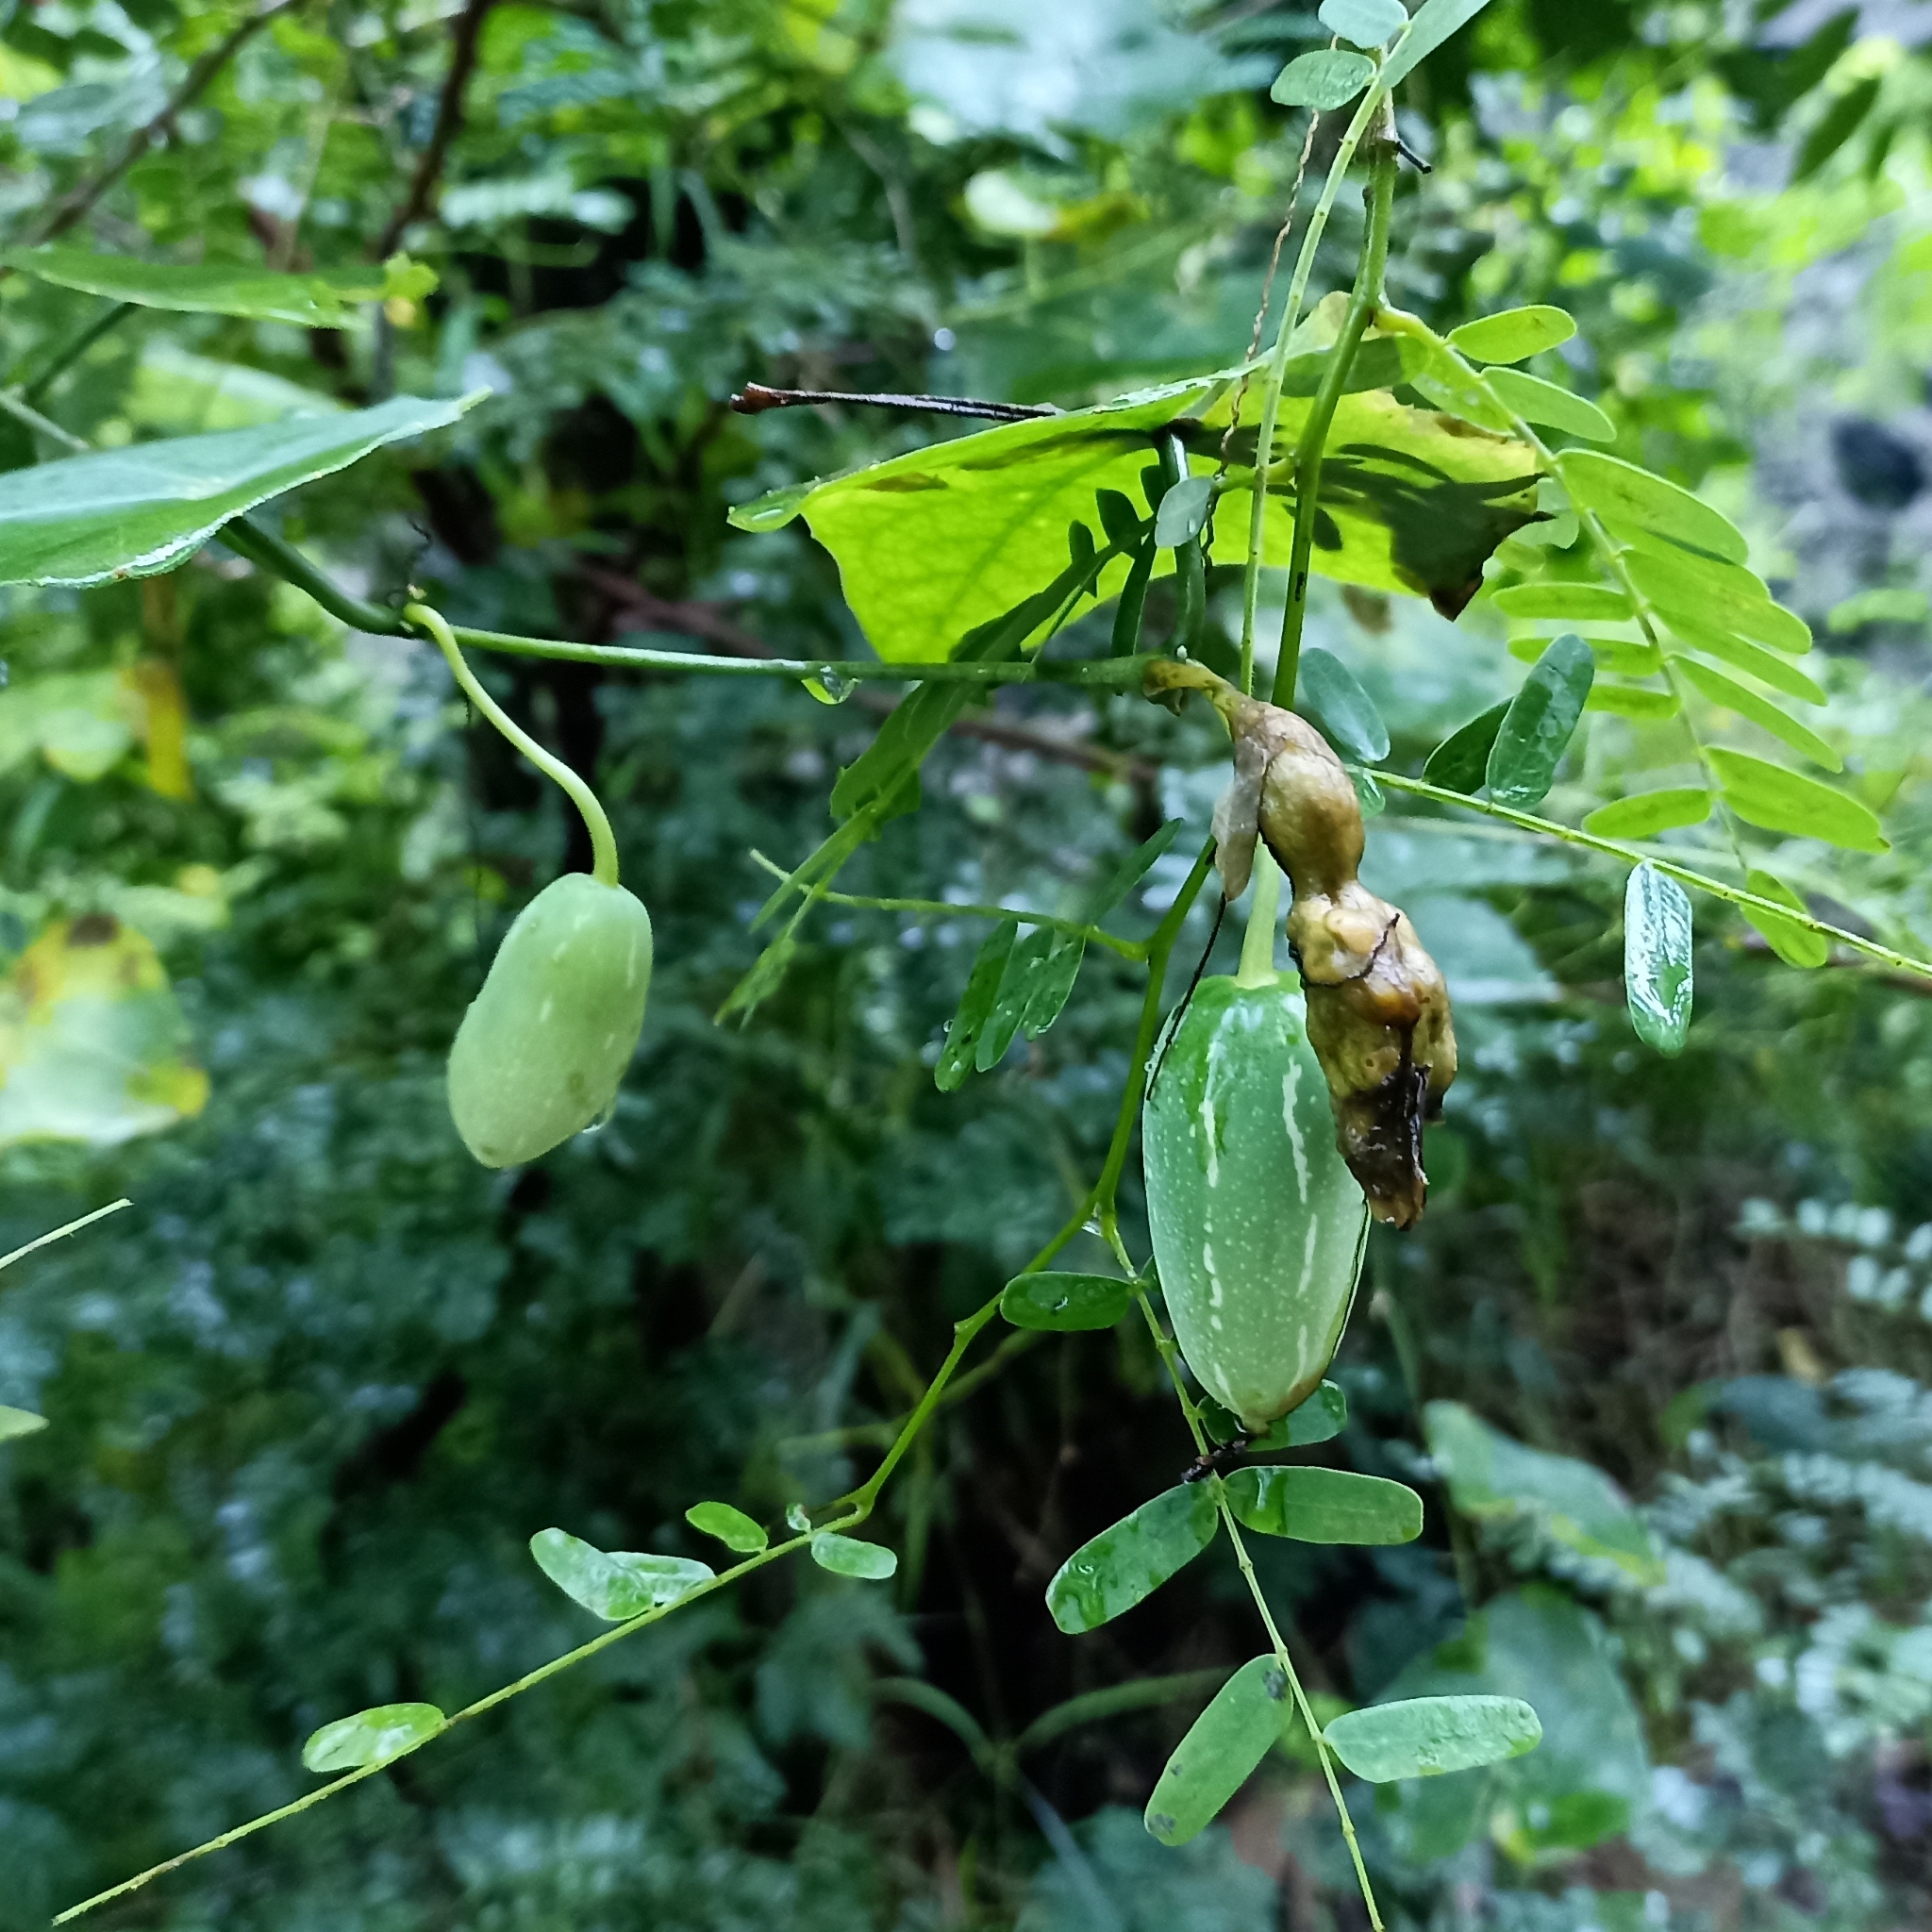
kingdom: Plantae
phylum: Tracheophyta
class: Magnoliopsida
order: Cucurbitales
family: Cucurbitaceae
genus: Coccinia
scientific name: Coccinia grandis
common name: Ivy gourd
